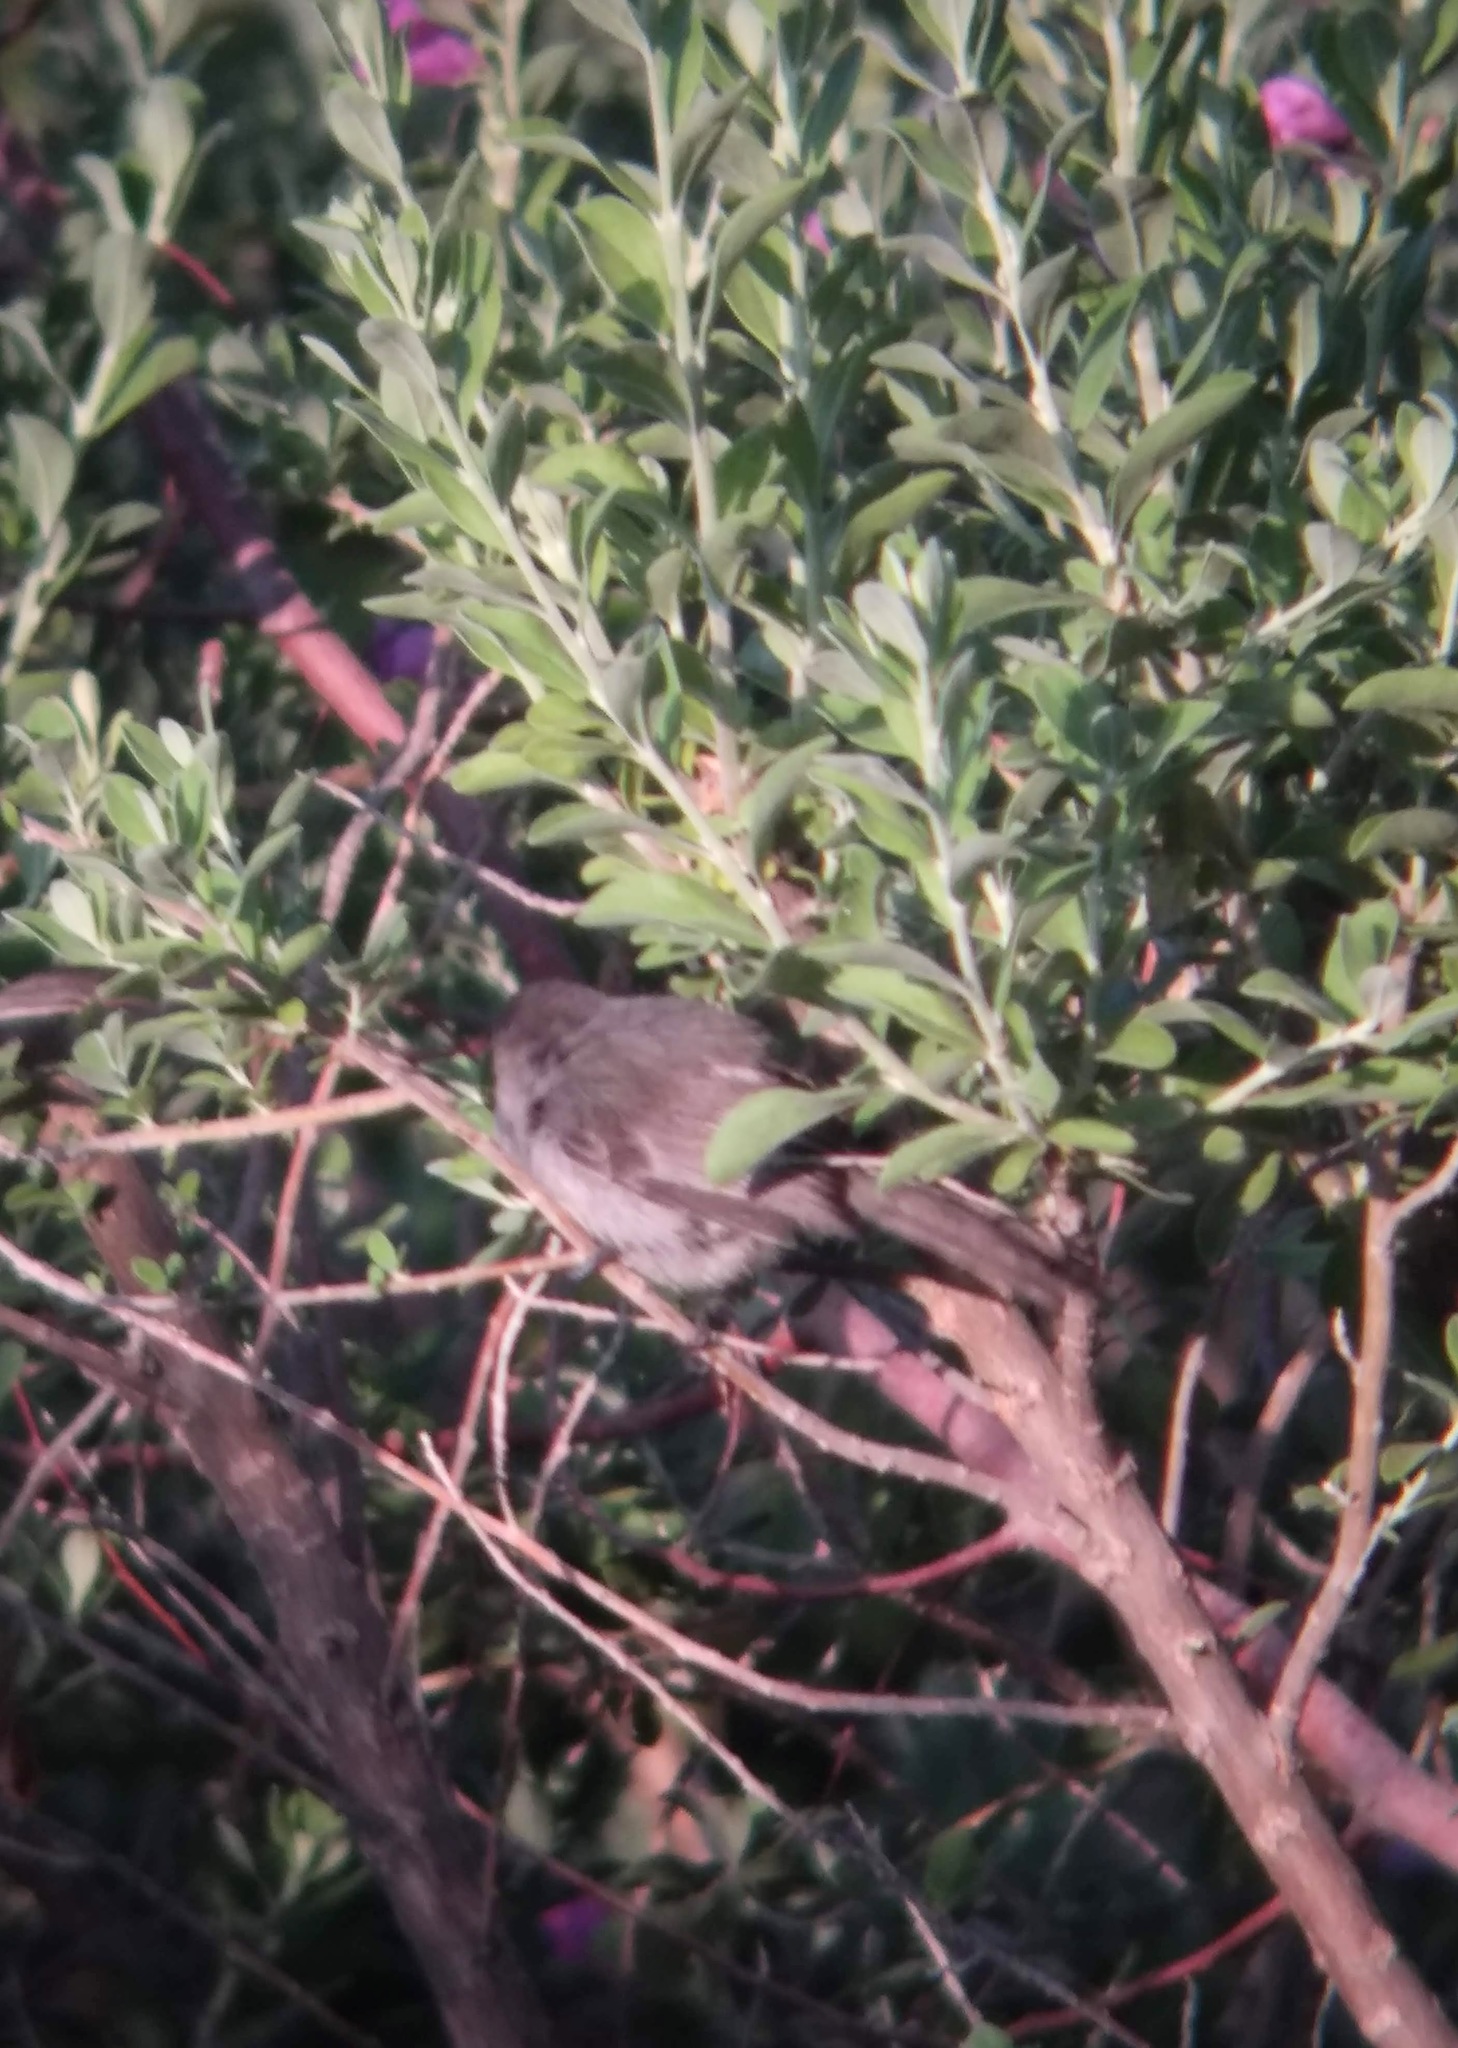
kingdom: Animalia
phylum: Chordata
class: Aves
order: Passeriformes
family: Aegithalidae
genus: Psaltriparus
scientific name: Psaltriparus minimus
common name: American bushtit
